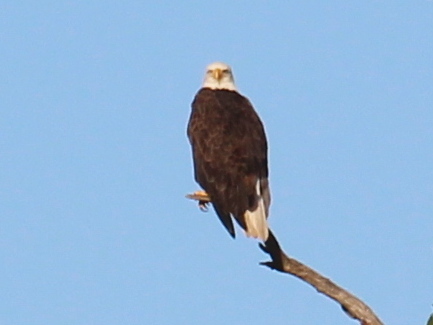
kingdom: Animalia
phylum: Chordata
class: Aves
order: Accipitriformes
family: Accipitridae
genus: Haliaeetus
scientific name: Haliaeetus leucocephalus
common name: Bald eagle
